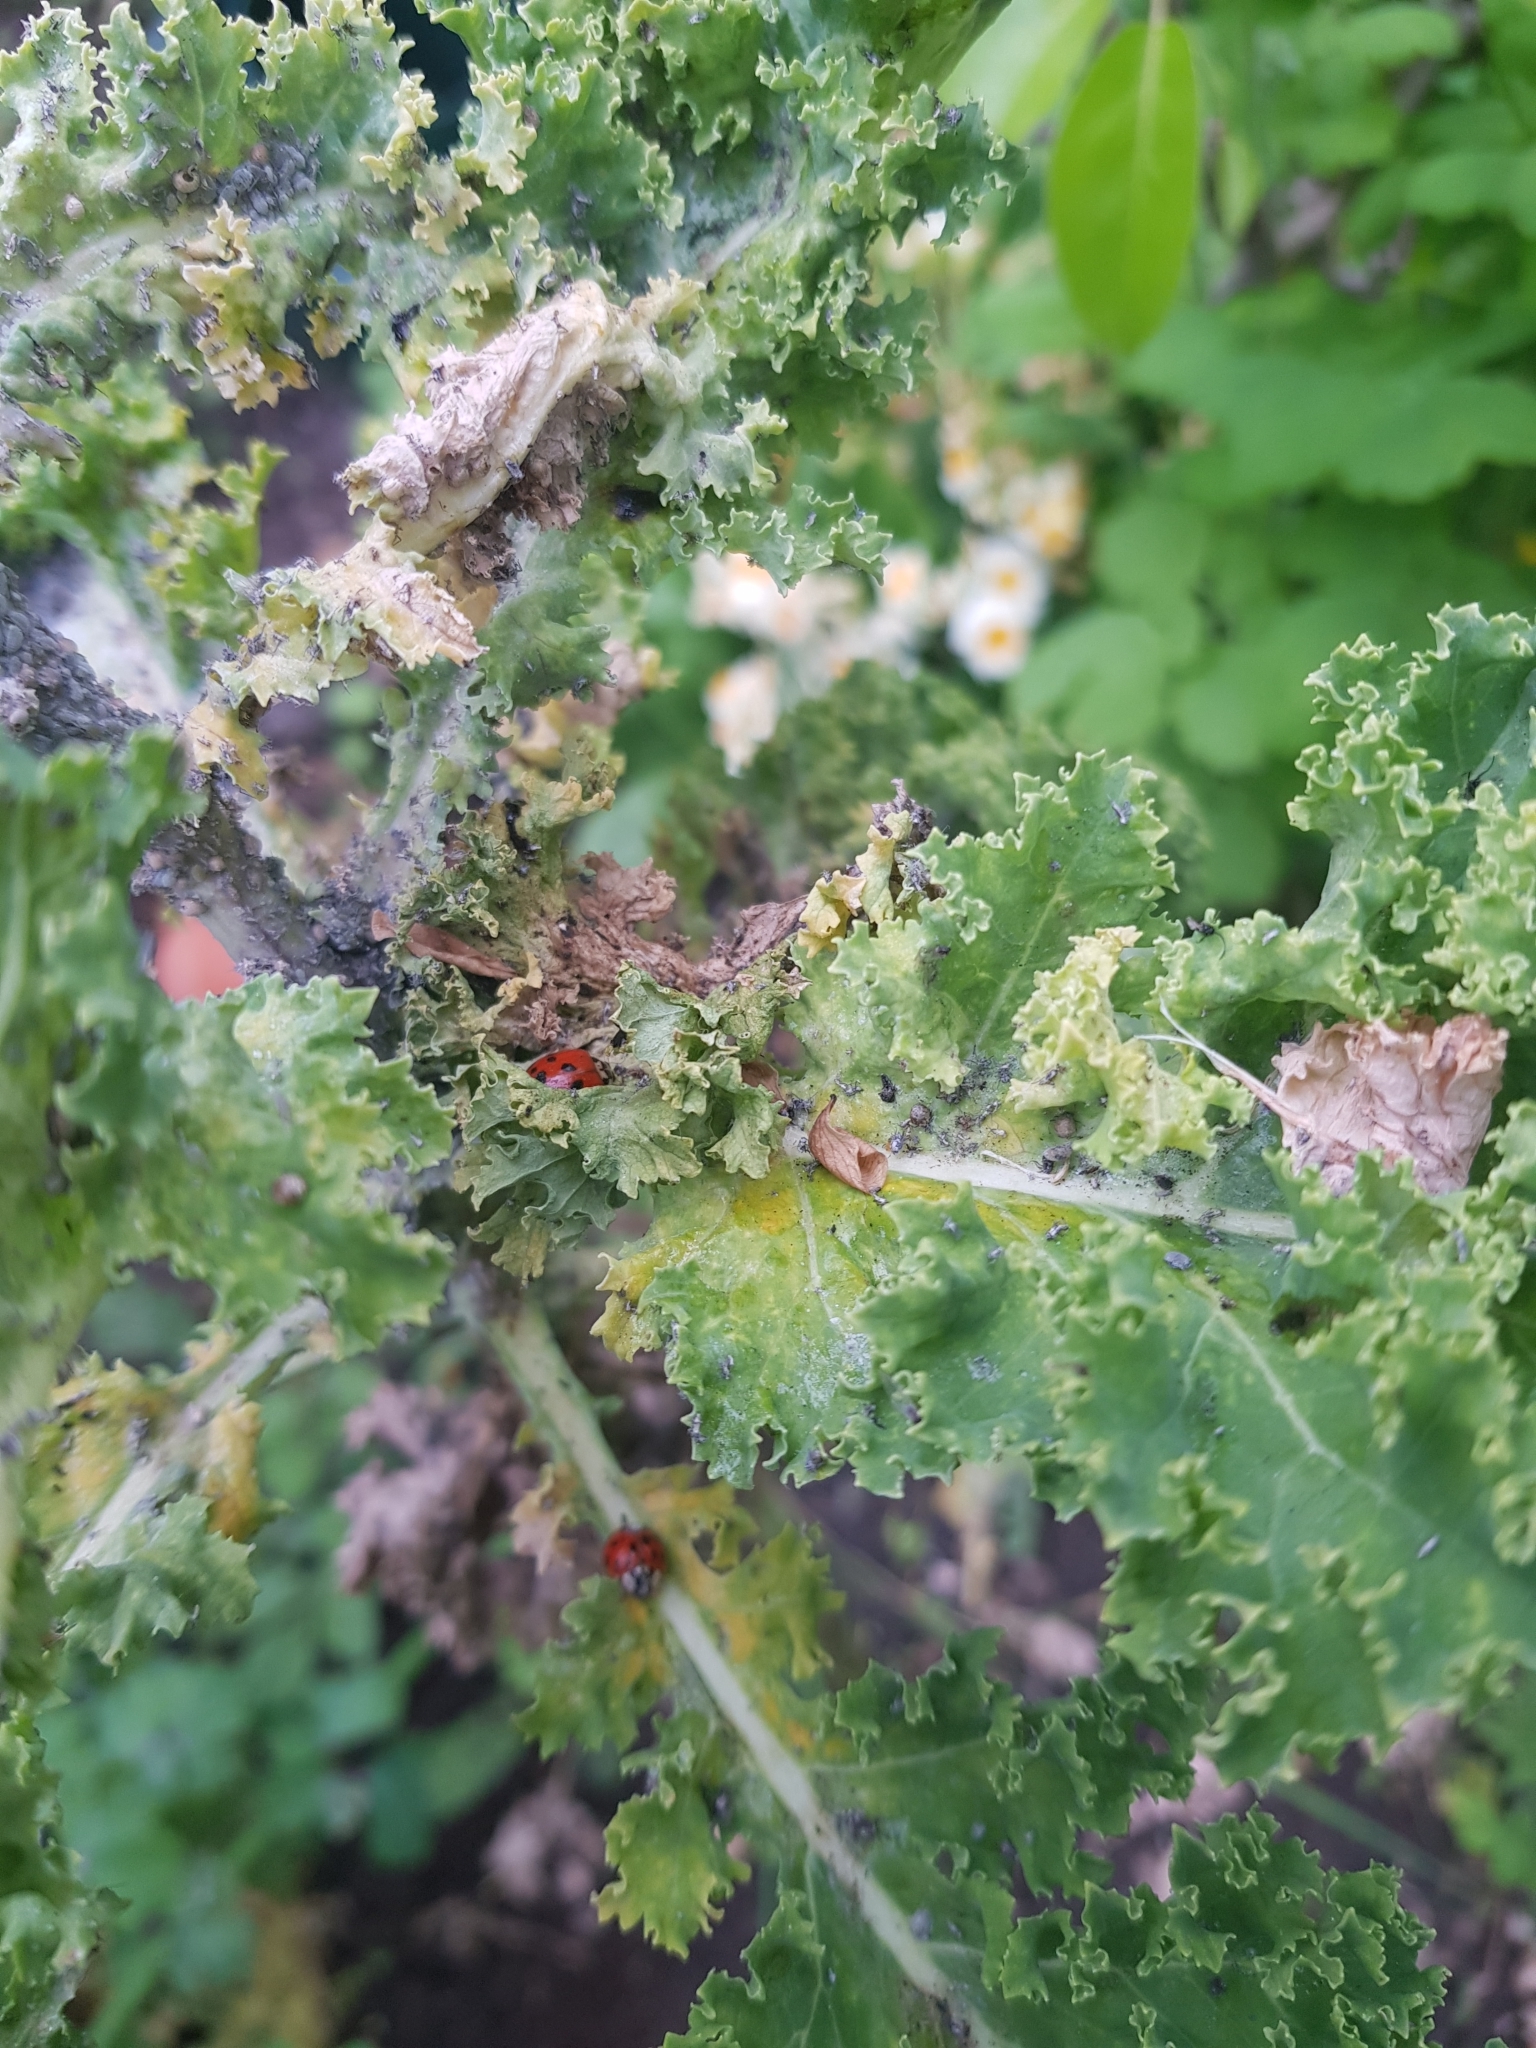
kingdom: Animalia
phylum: Arthropoda
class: Insecta
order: Coleoptera
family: Coccinellidae
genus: Harmonia
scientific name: Harmonia axyridis
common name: Harlequin ladybird
